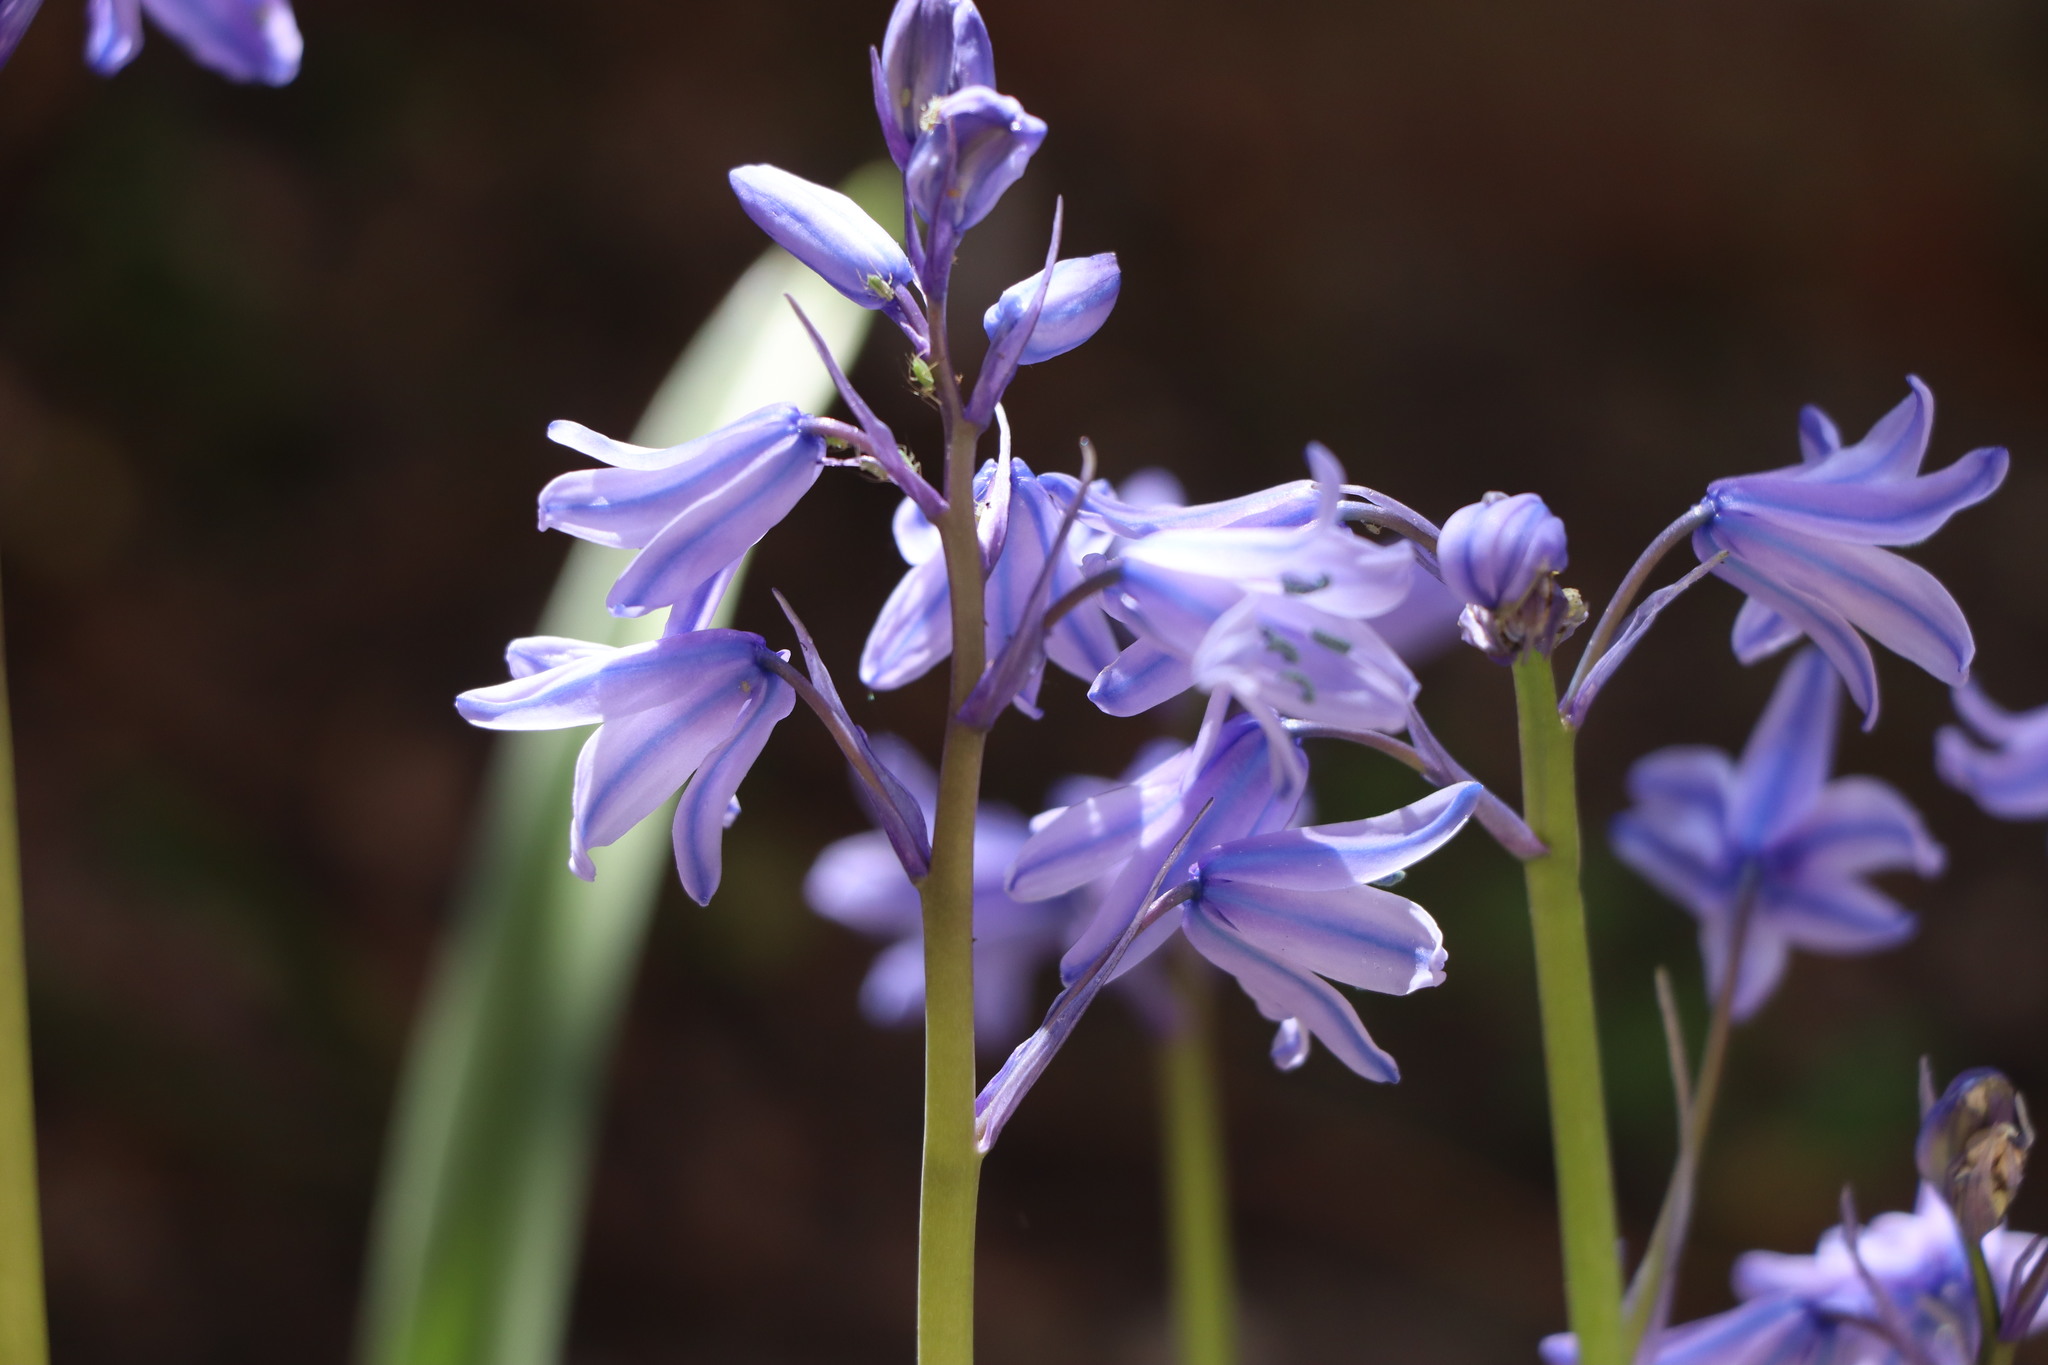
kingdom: Plantae
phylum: Tracheophyta
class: Liliopsida
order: Asparagales
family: Asparagaceae
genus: Hyacinthoides
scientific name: Hyacinthoides hispanica
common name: Spanish bluebell
